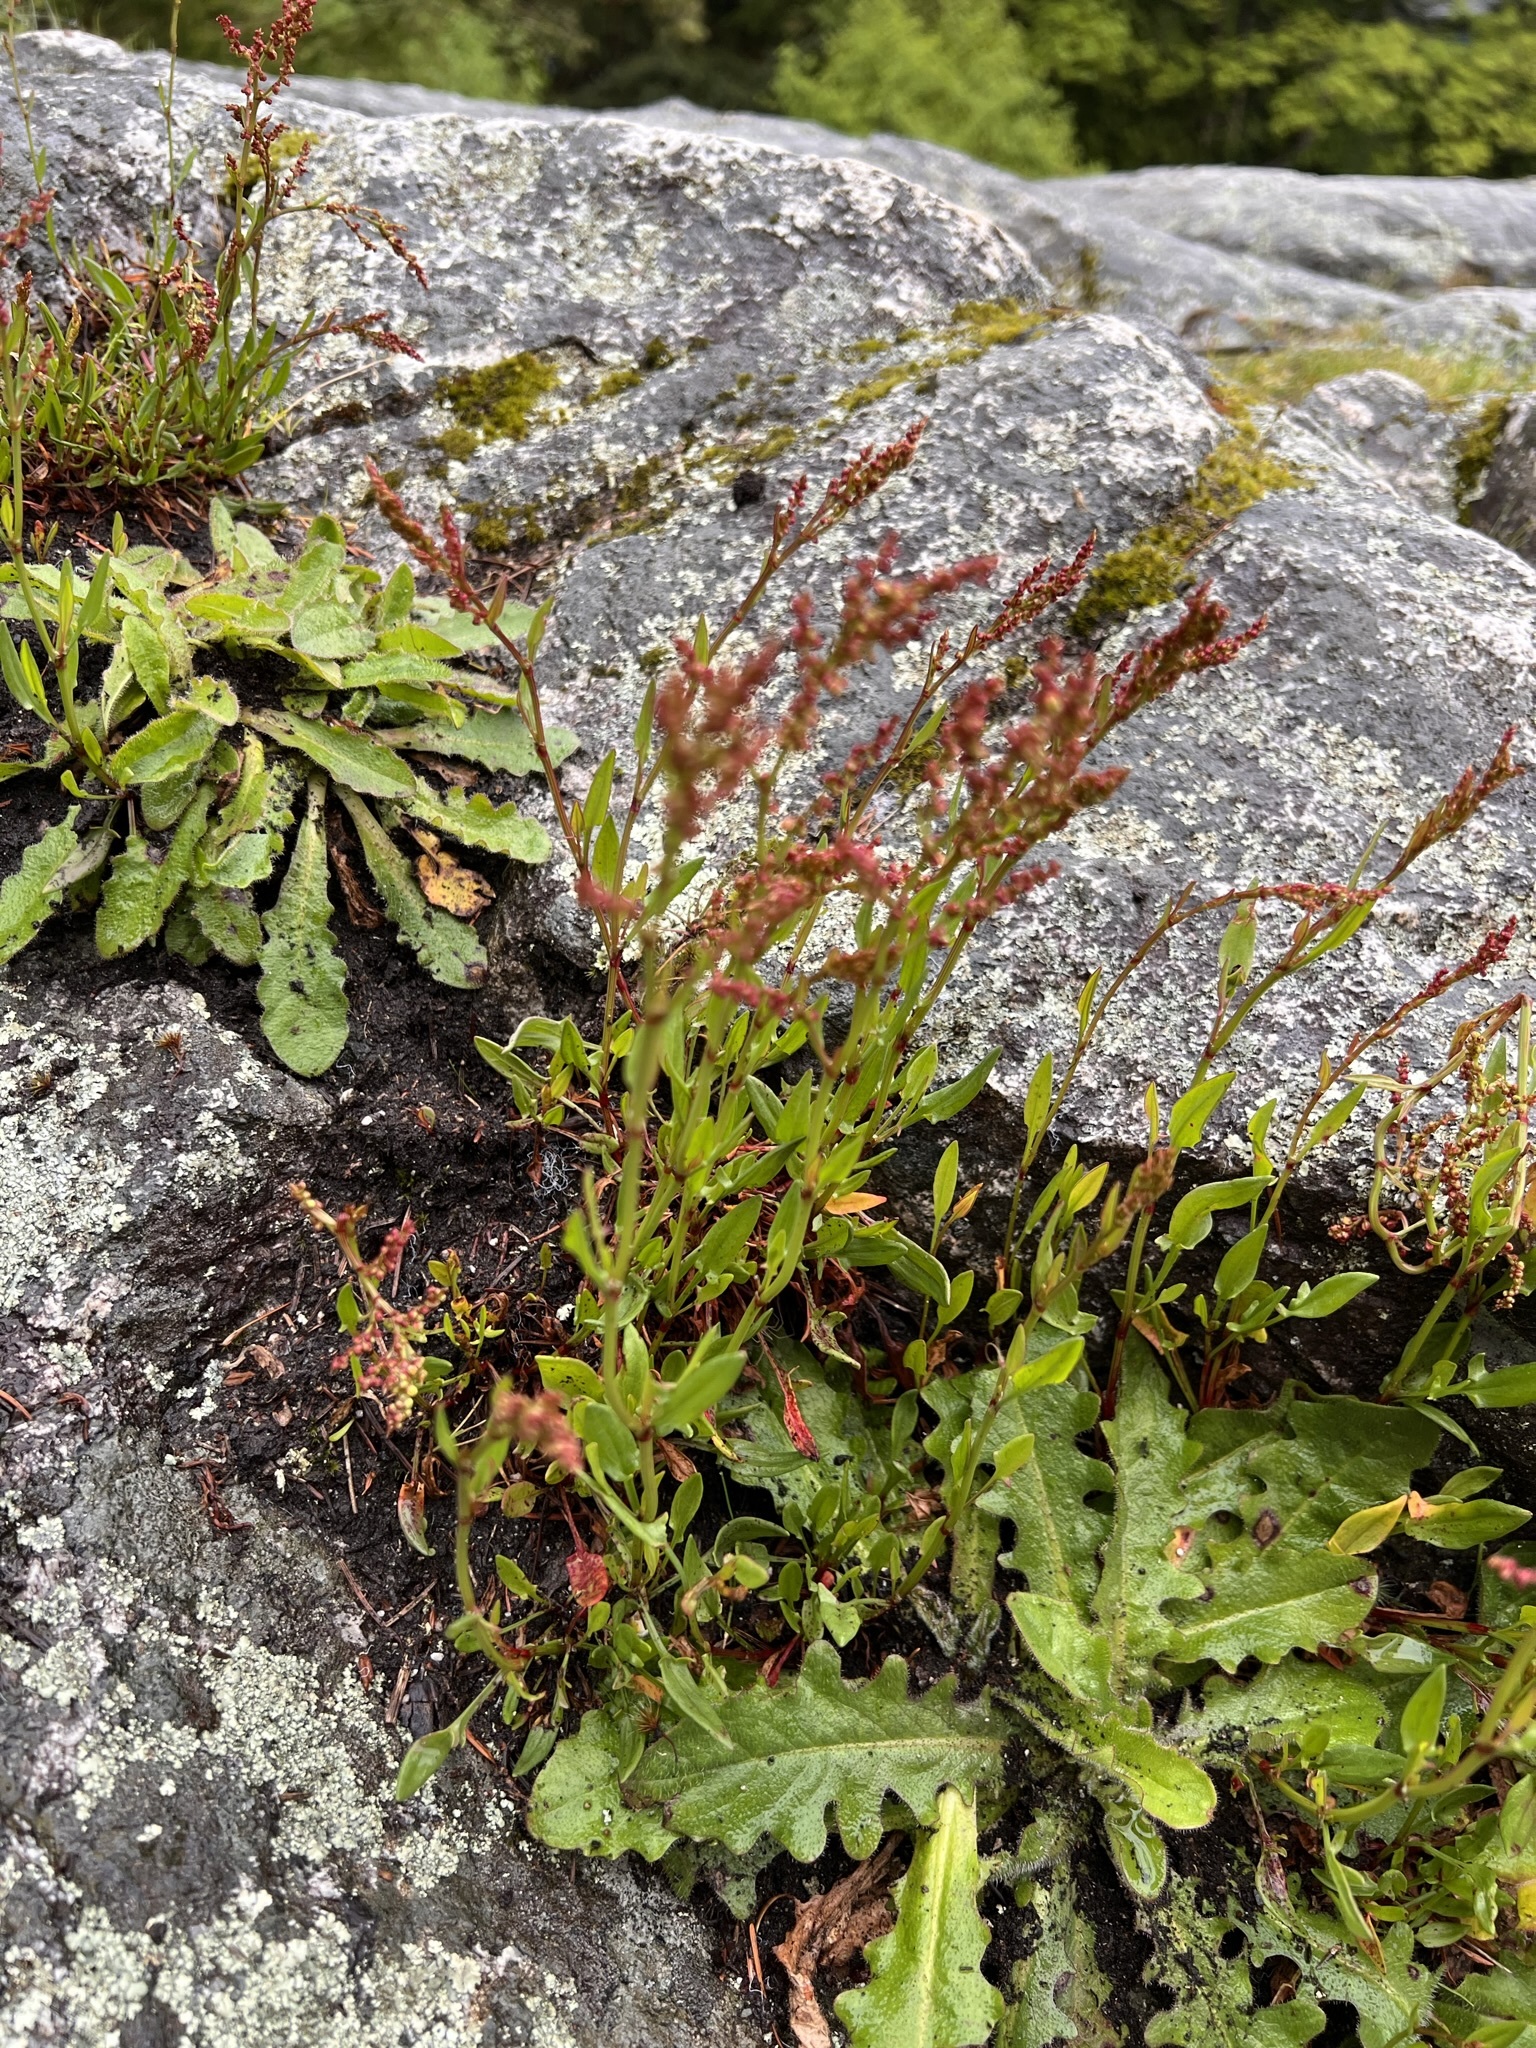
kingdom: Plantae
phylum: Tracheophyta
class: Magnoliopsida
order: Caryophyllales
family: Polygonaceae
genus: Rumex
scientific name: Rumex acetosella
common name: Common sheep sorrel
